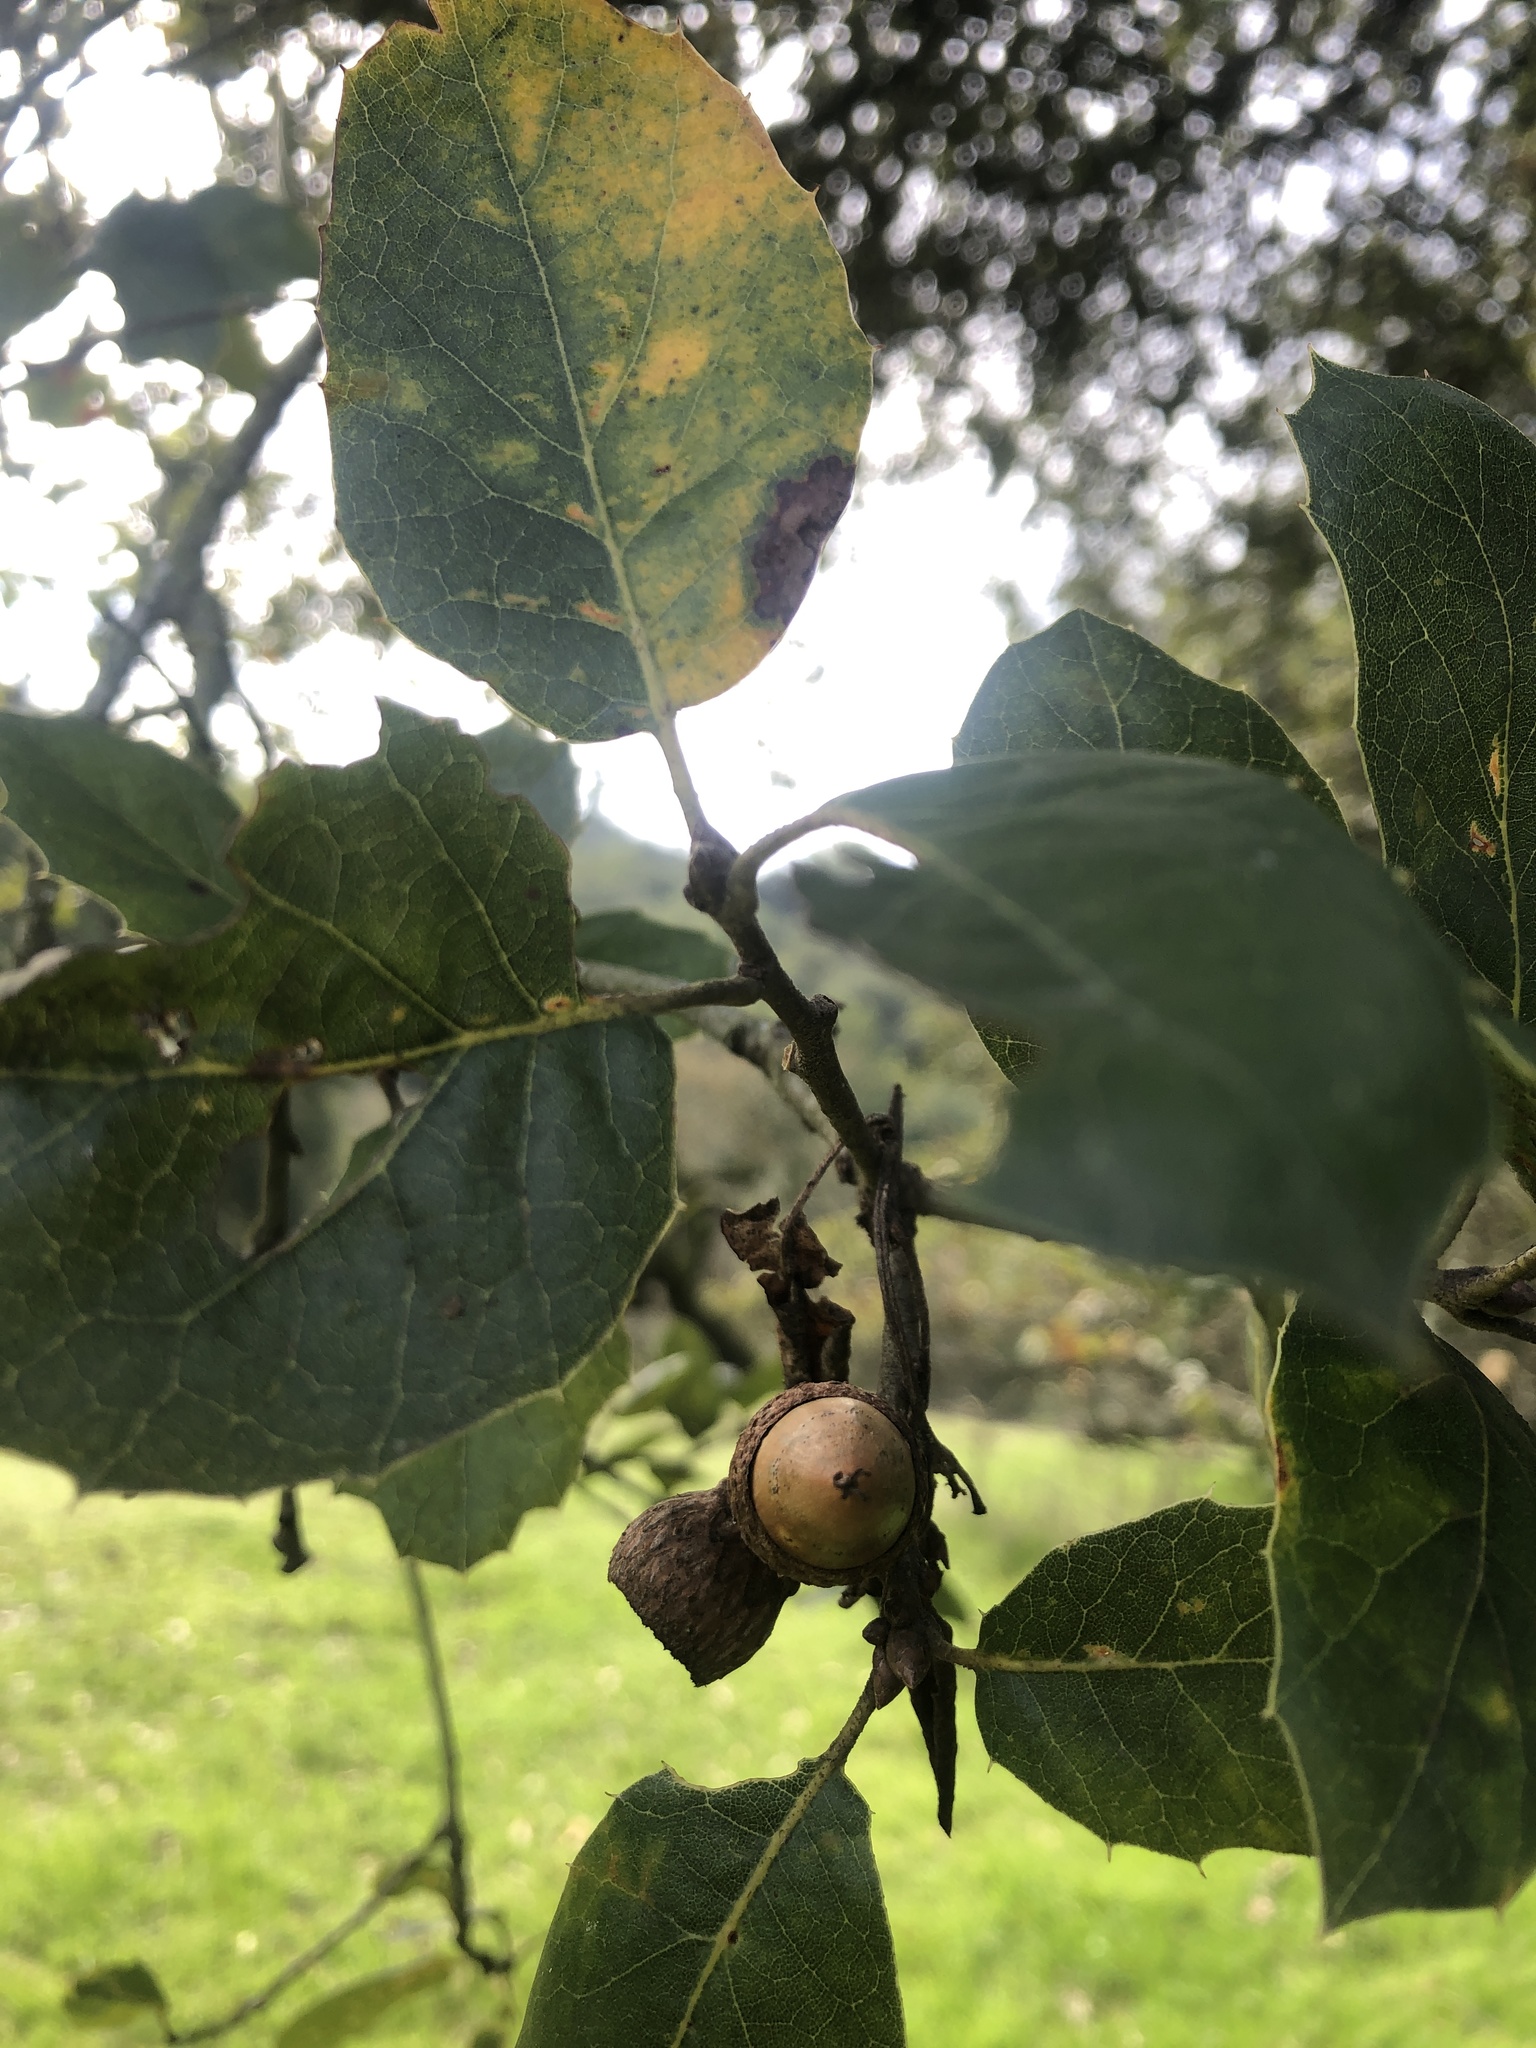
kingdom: Plantae
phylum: Tracheophyta
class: Magnoliopsida
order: Fagales
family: Fagaceae
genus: Quercus
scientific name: Quercus agrifolia
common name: California live oak
